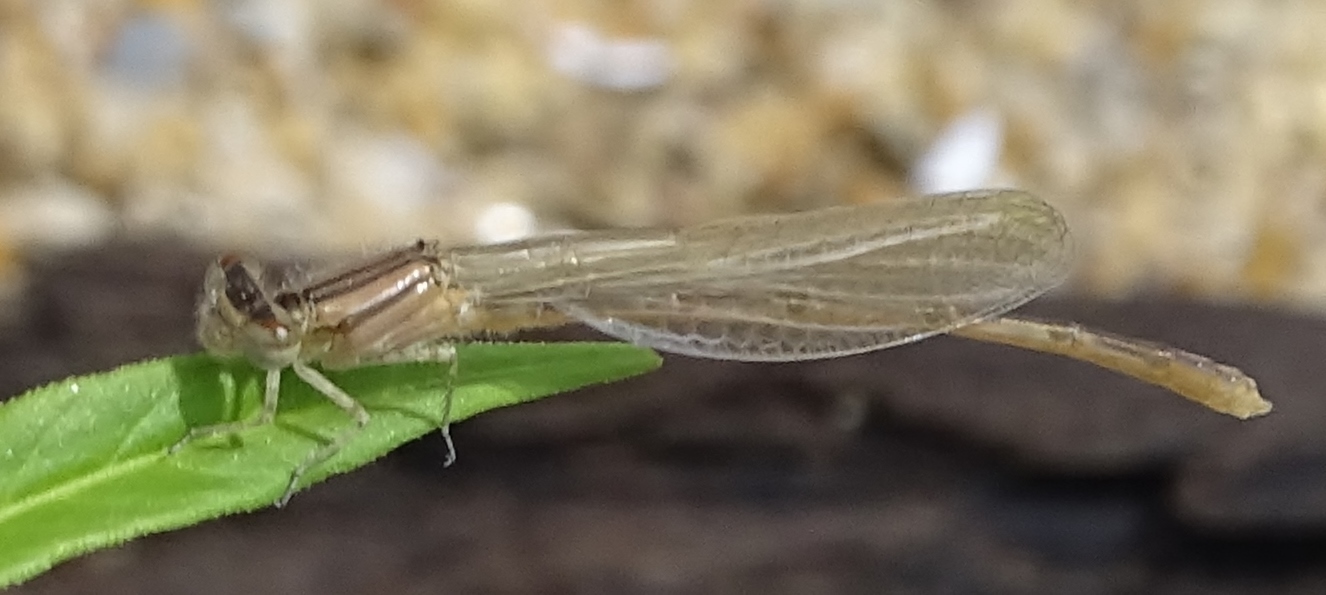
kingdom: Animalia
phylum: Arthropoda
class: Insecta
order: Odonata
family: Coenagrionidae
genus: Enallagma
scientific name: Enallagma durum
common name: Big bluet
